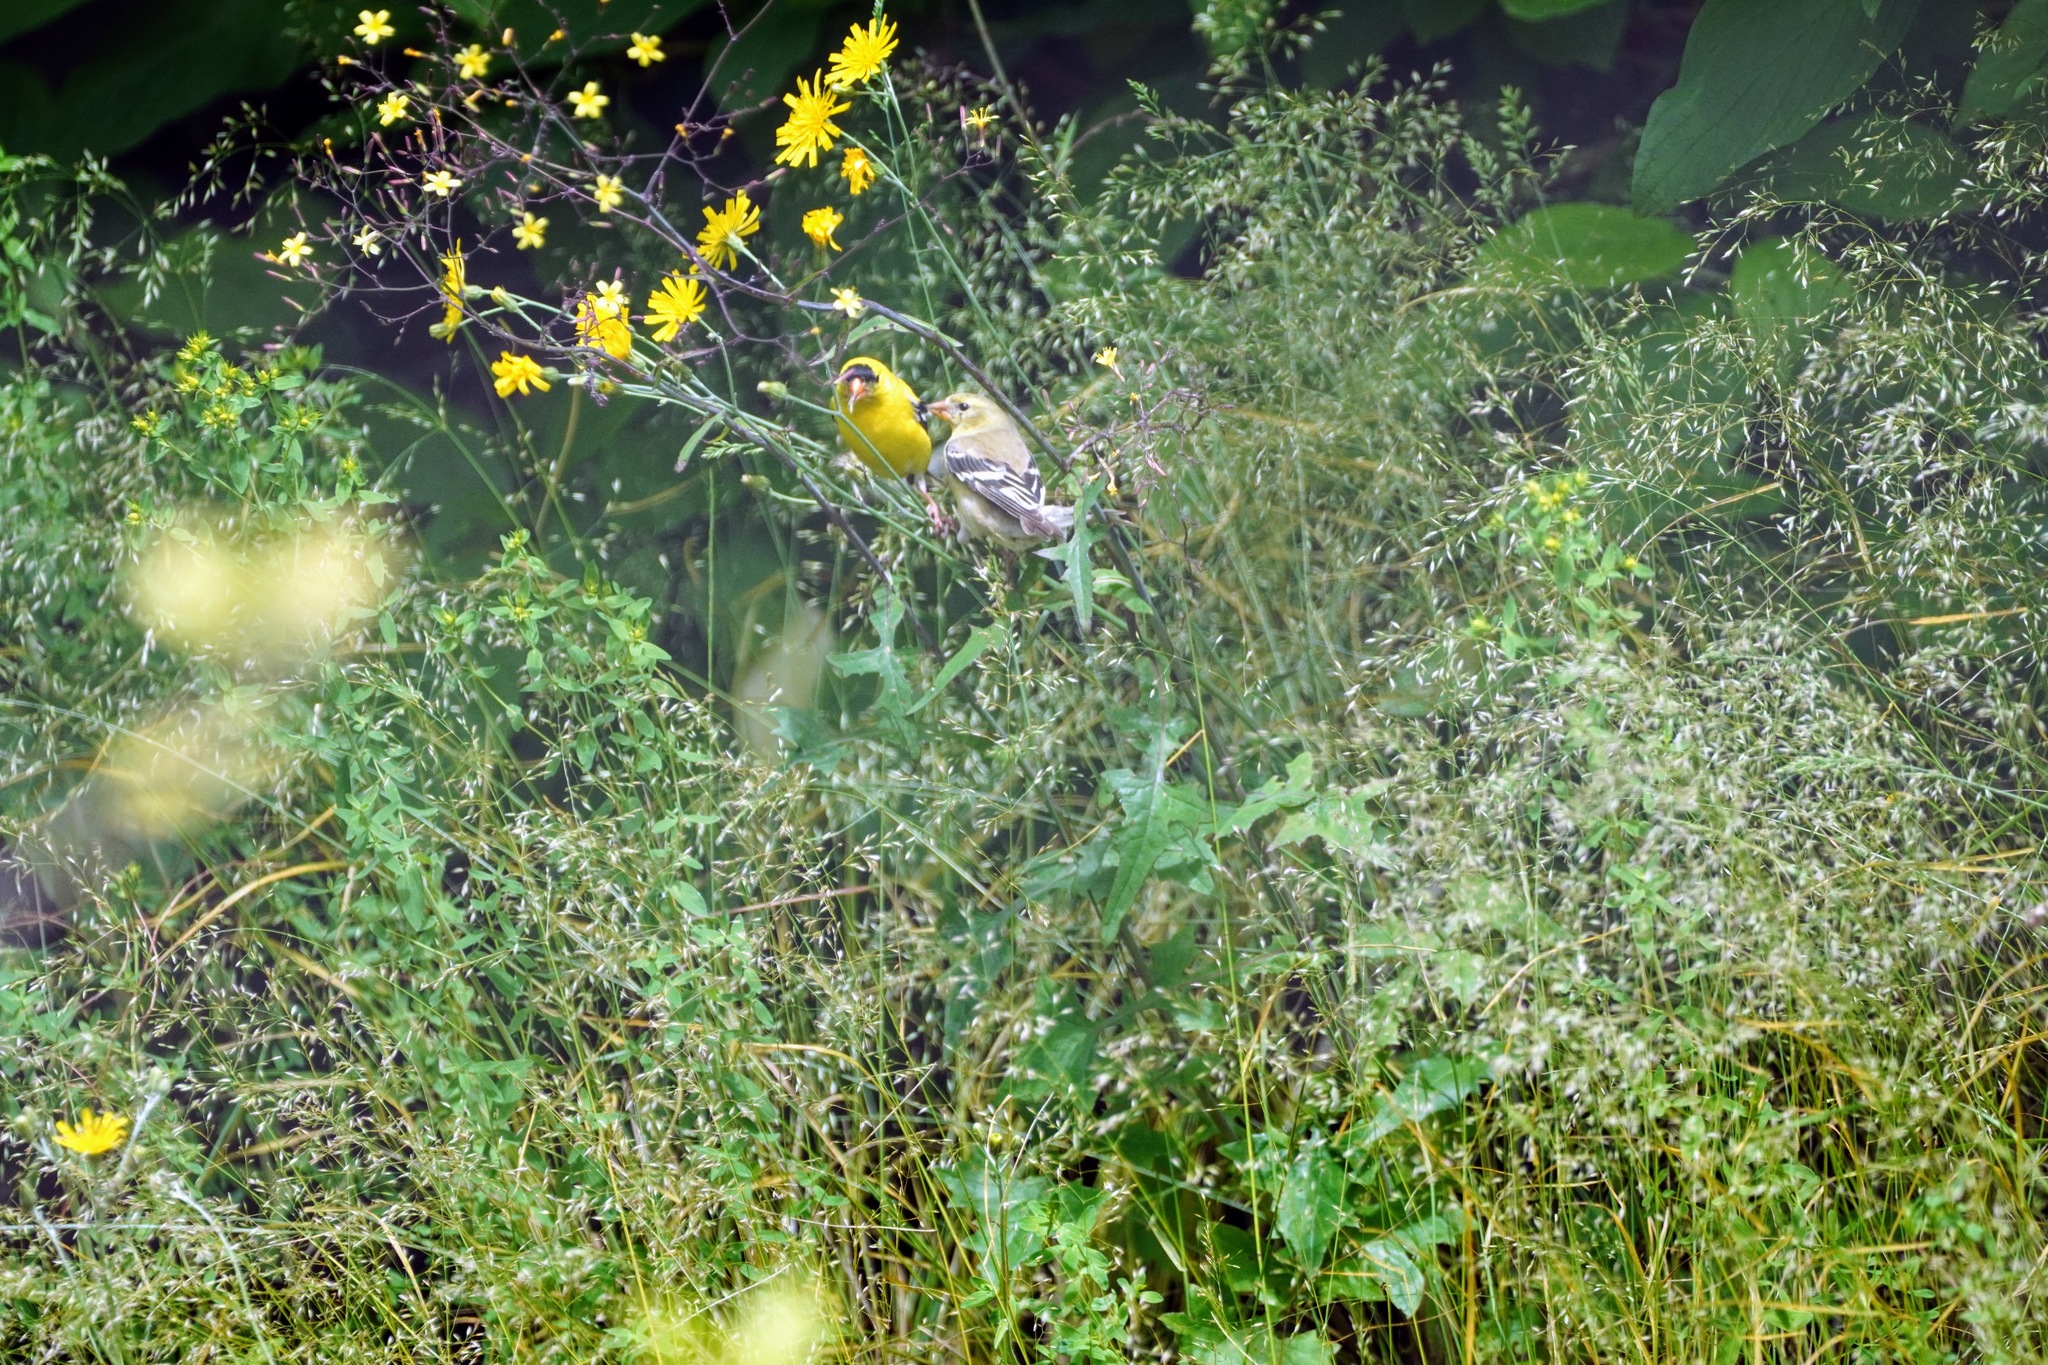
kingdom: Animalia
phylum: Chordata
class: Aves
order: Passeriformes
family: Fringillidae
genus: Spinus
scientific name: Spinus tristis
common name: American goldfinch
